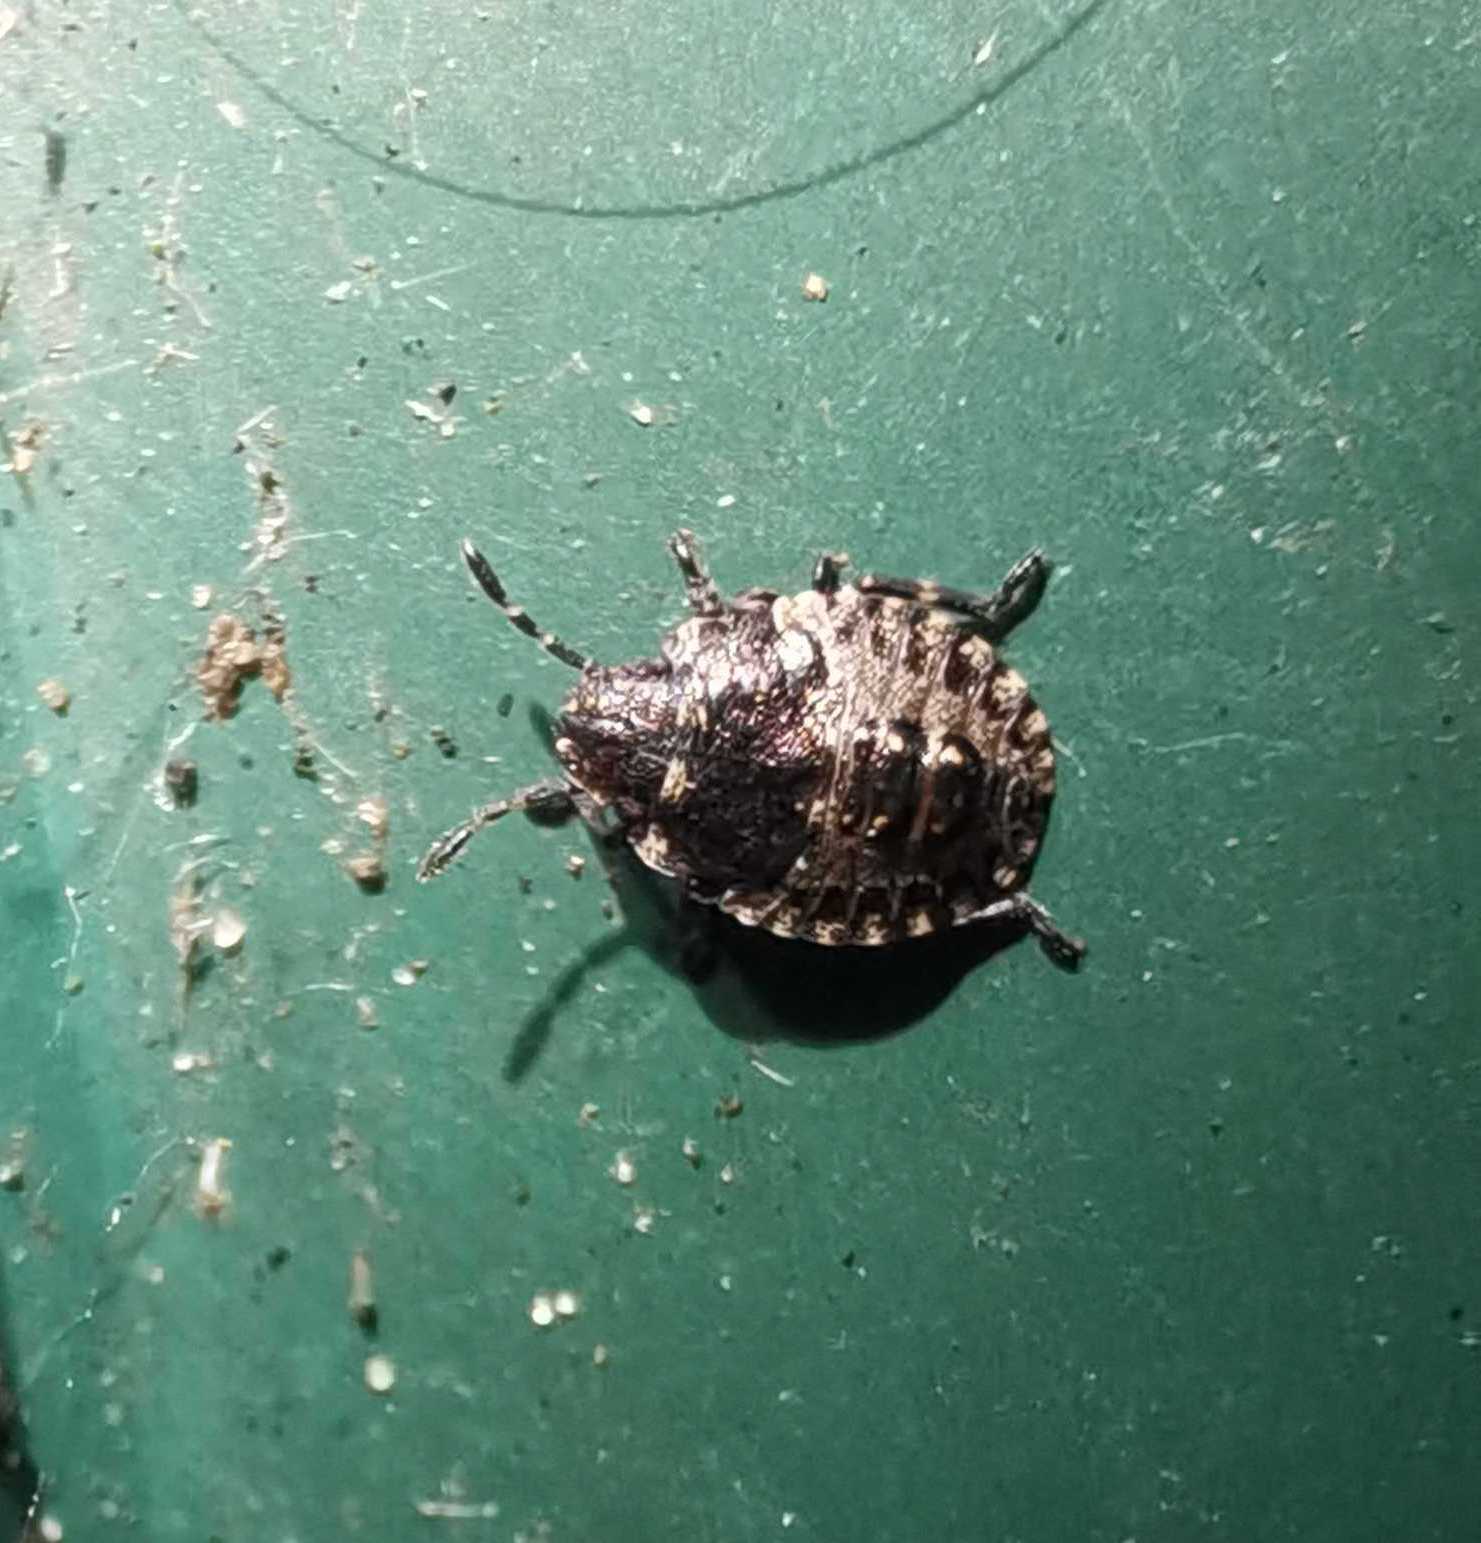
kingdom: Animalia
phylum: Arthropoda
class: Insecta
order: Hemiptera
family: Pentatomidae
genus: Pentatoma
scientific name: Pentatoma rufipes
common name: Forest bug
